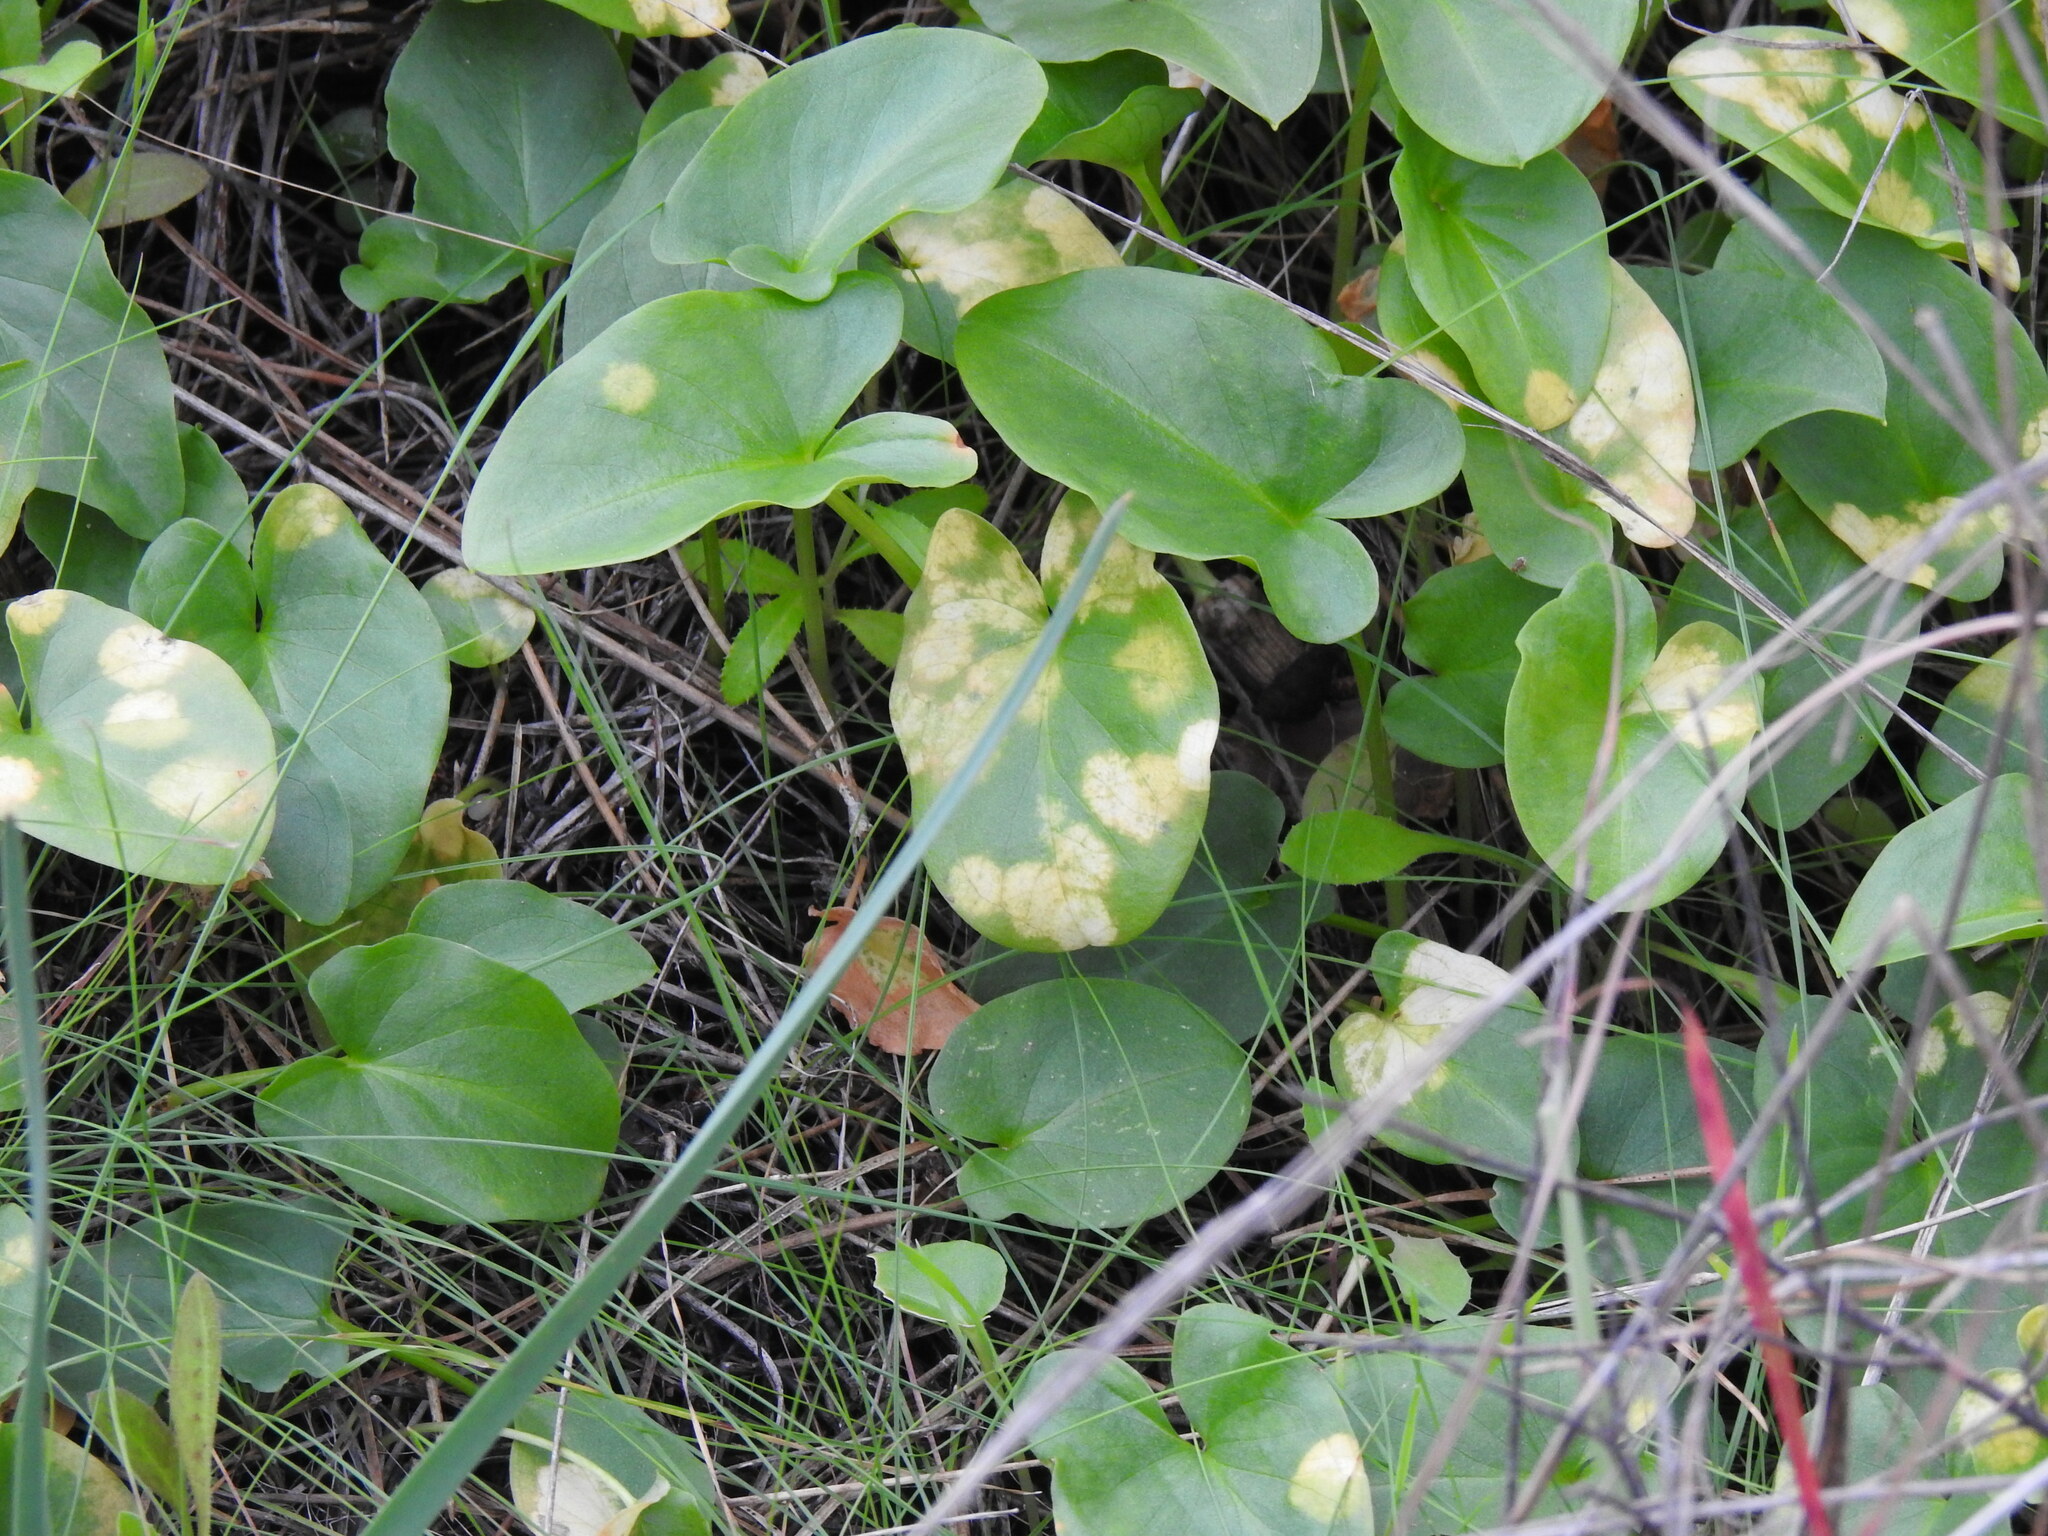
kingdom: Chromista
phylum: Ochrophyta
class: Xanthophyceae
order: Phyllosiphonales
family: Phyllosiphonaceae
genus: Phyllosiphon
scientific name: Phyllosiphon arisari
